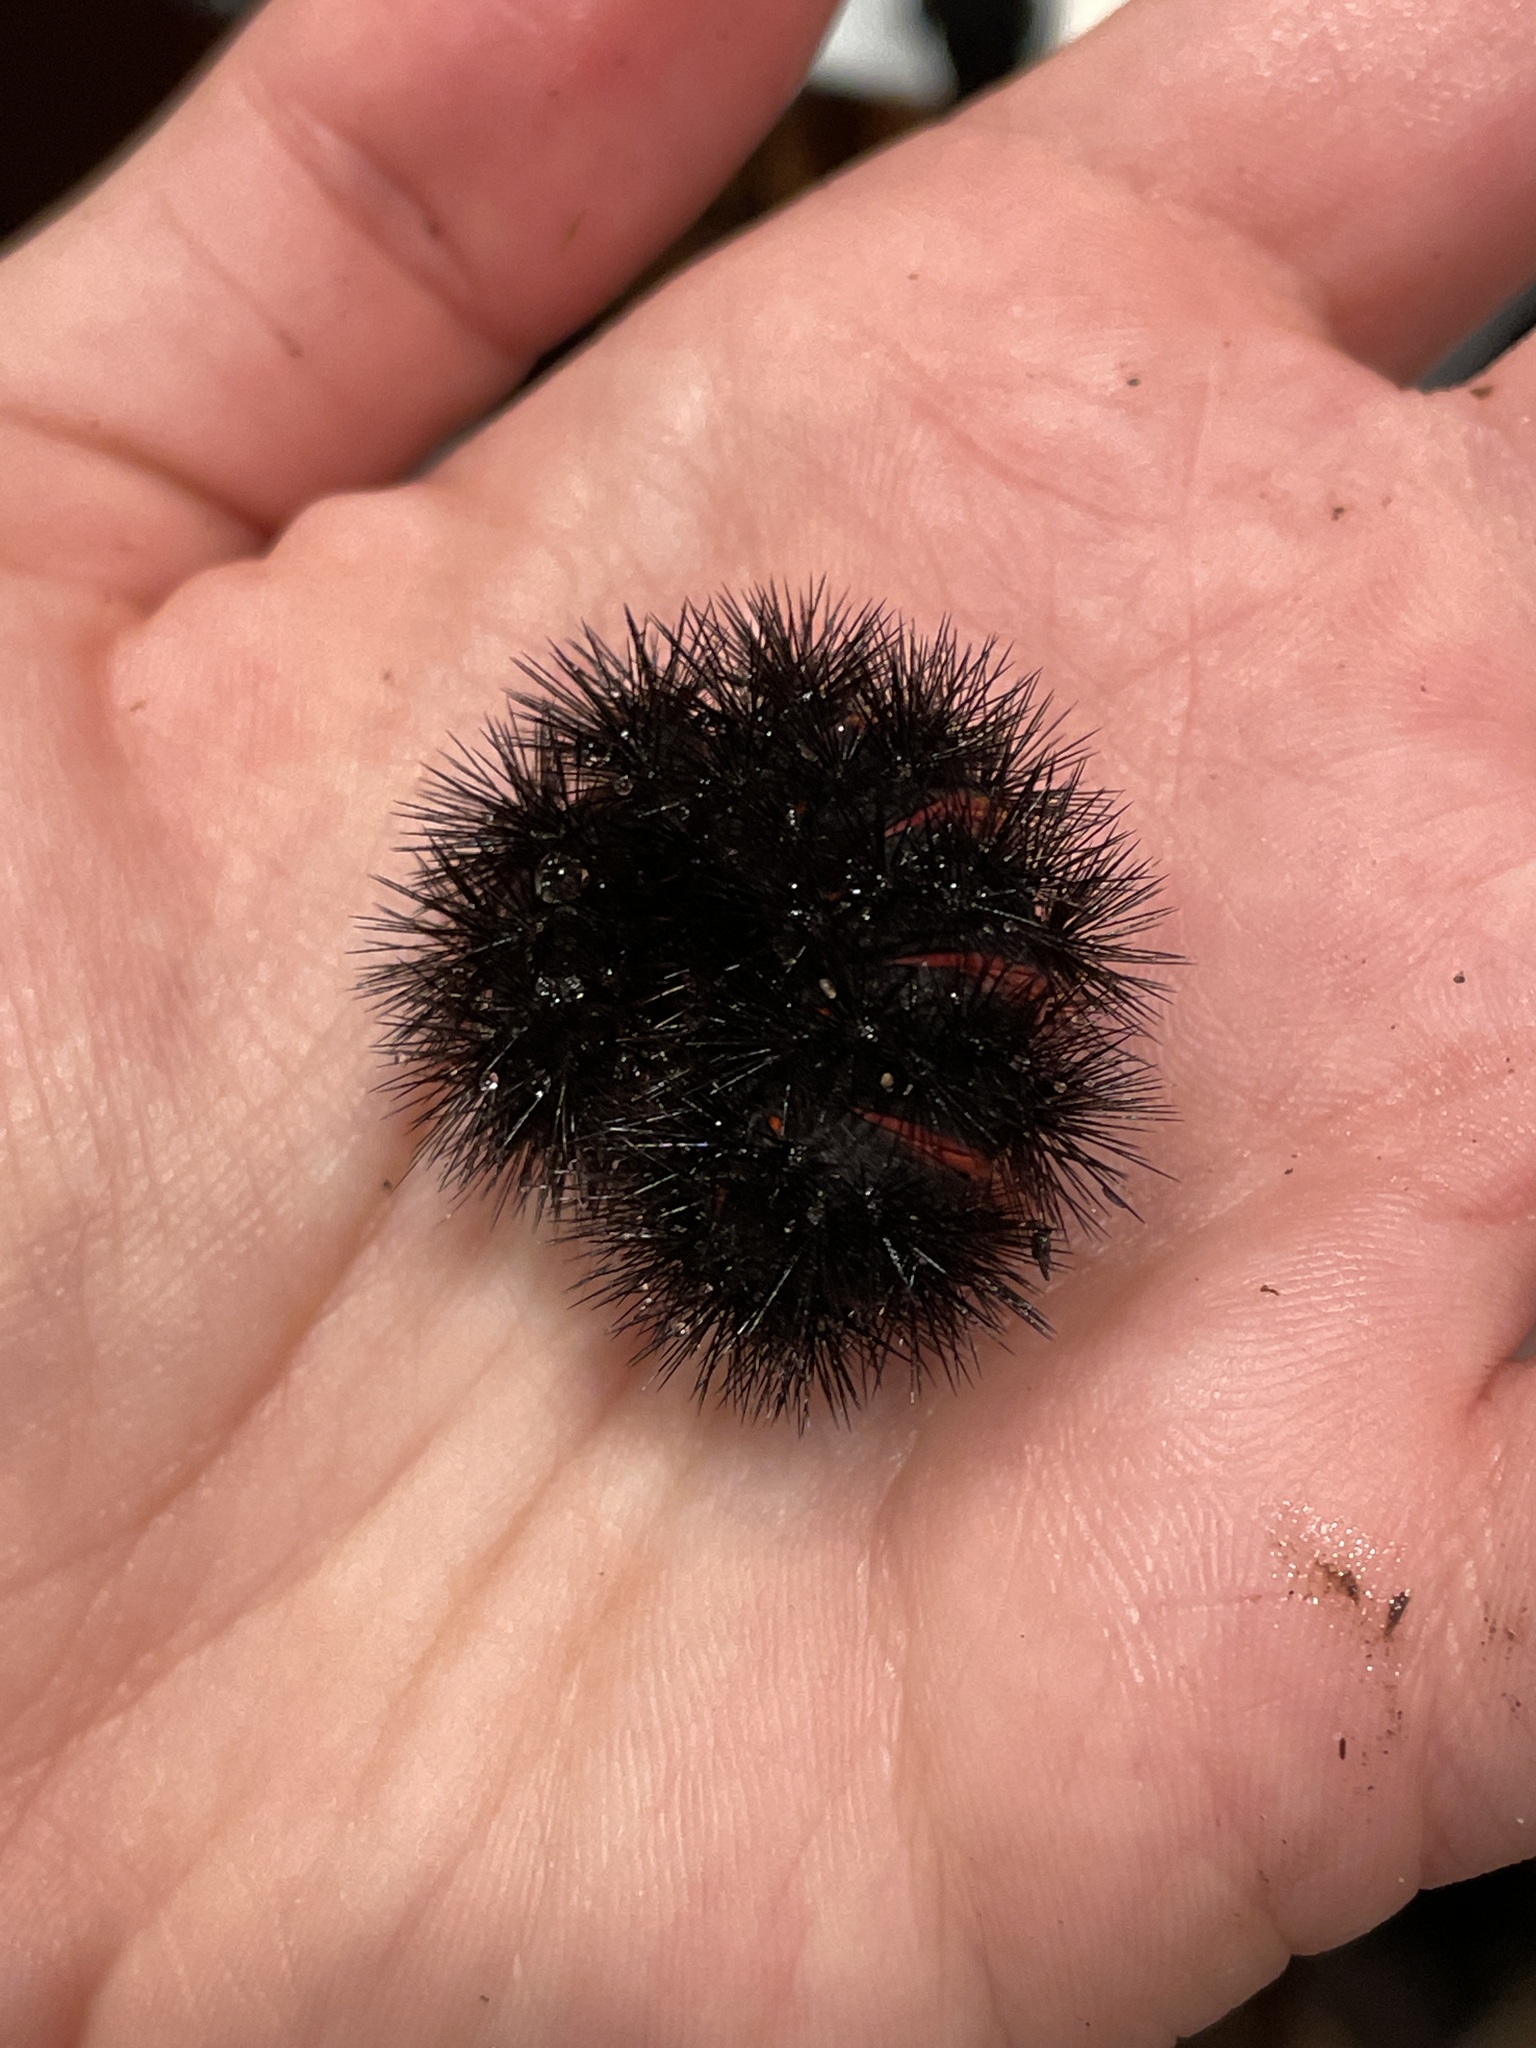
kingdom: Animalia
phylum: Arthropoda
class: Insecta
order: Lepidoptera
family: Erebidae
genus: Hypercompe
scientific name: Hypercompe scribonia
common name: Giant leopard moth
